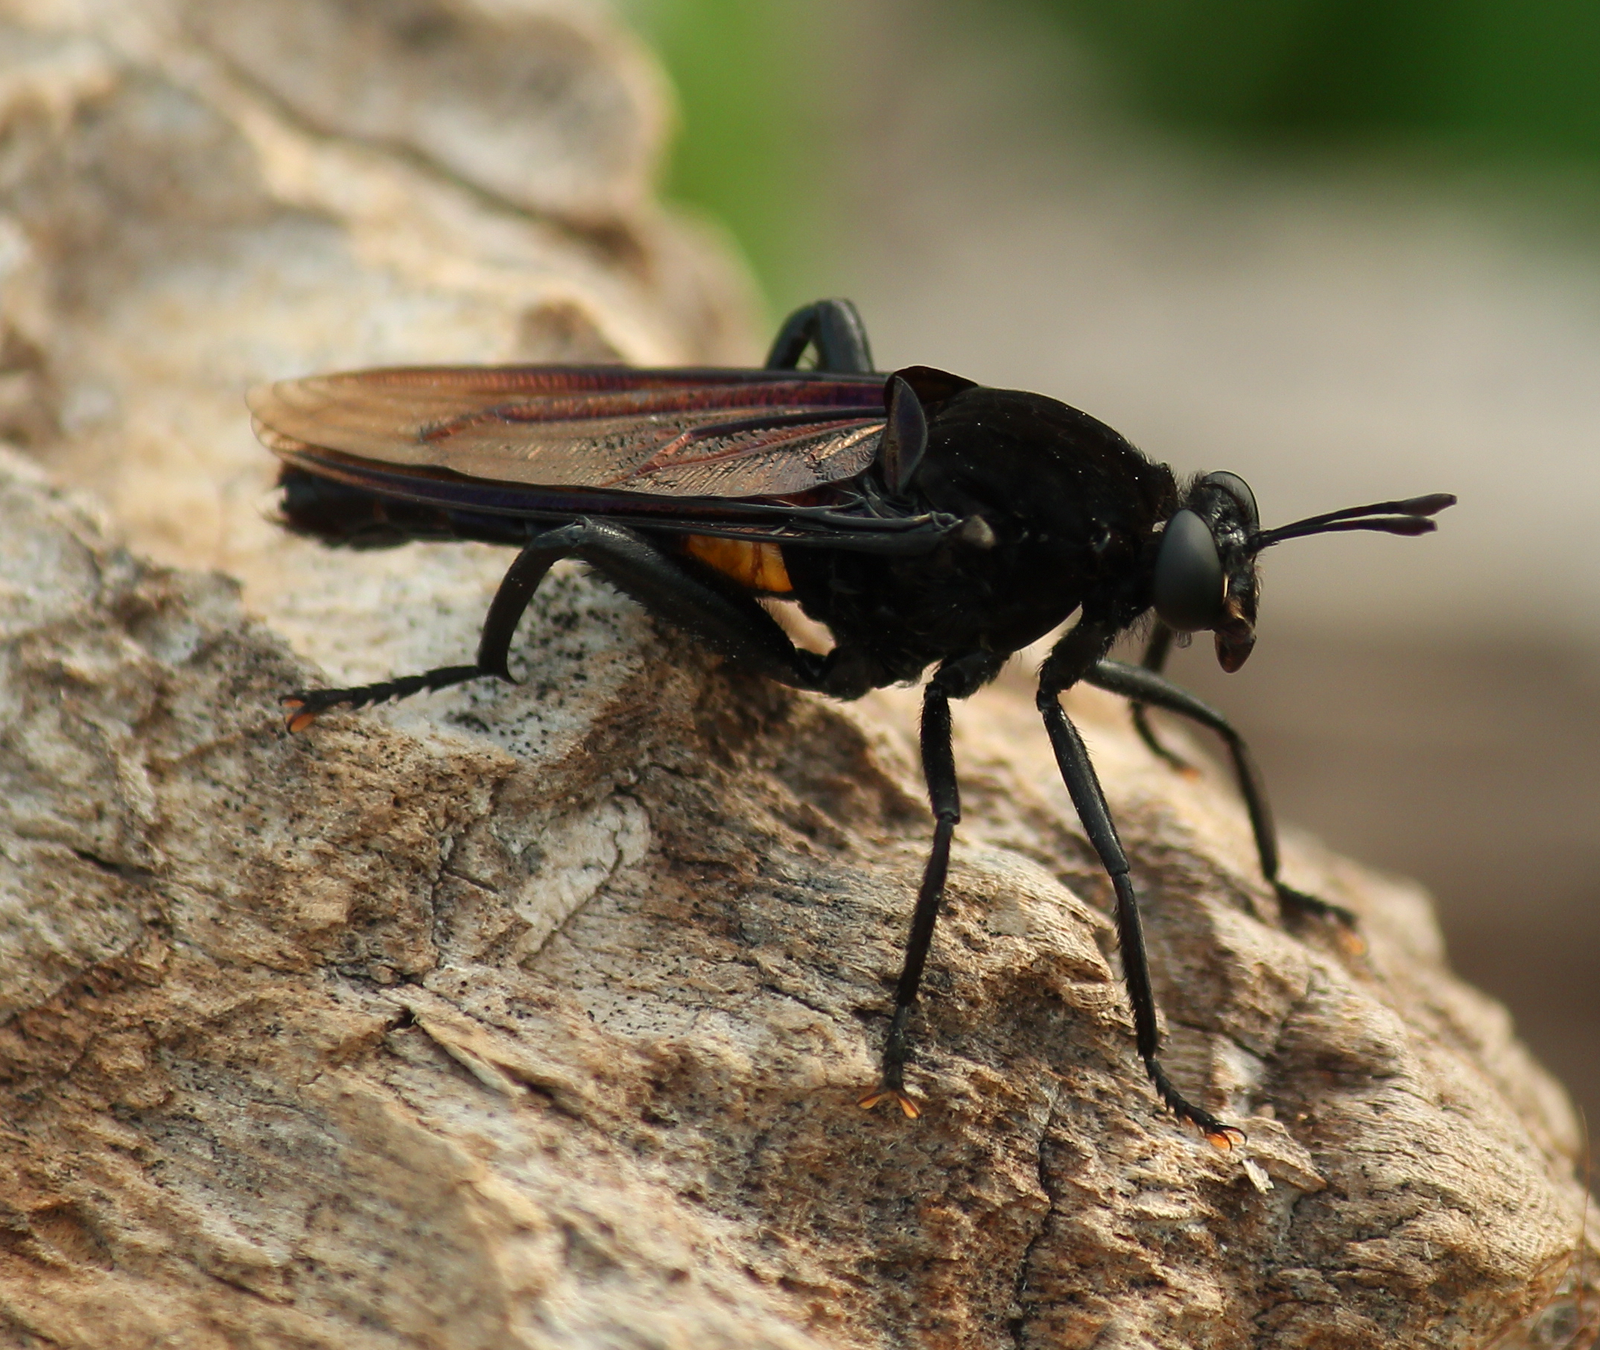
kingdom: Animalia
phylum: Arthropoda
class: Insecta
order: Diptera
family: Mydidae
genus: Mydas
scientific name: Mydas clavatus
